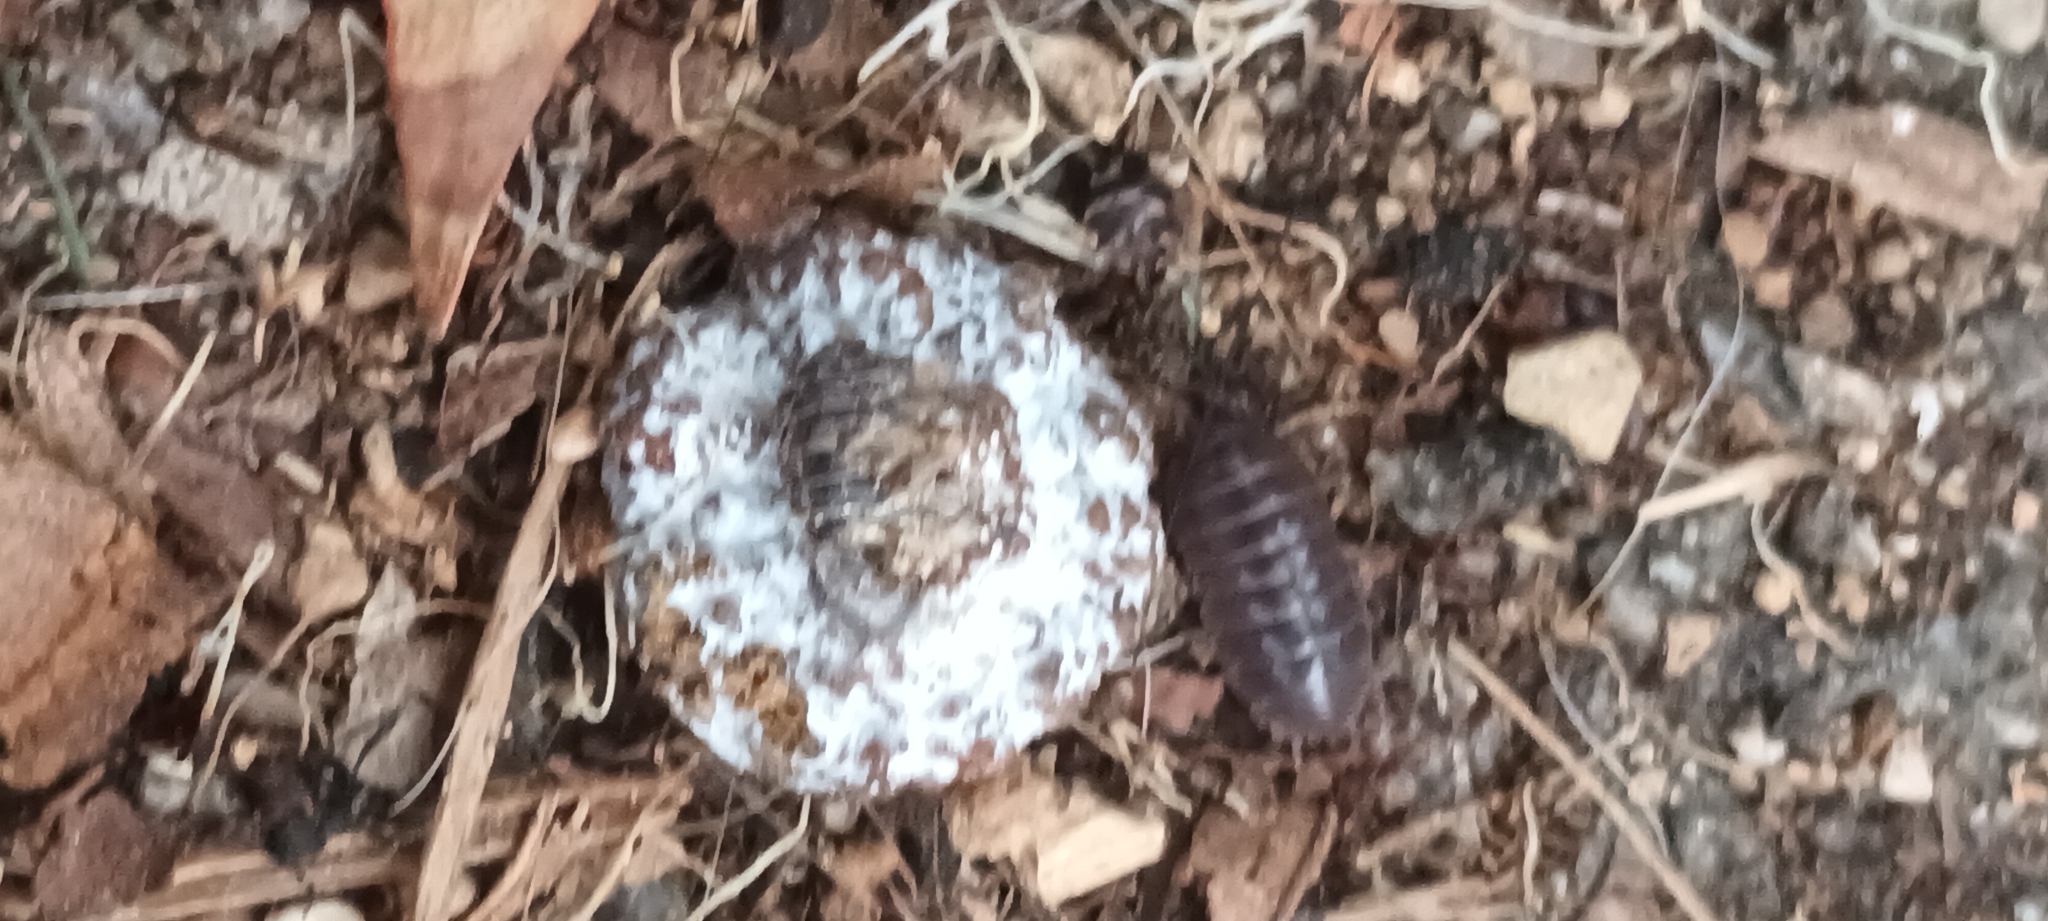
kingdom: Animalia
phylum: Arthropoda
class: Malacostraca
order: Isopoda
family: Armadillidiidae
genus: Armadillidium
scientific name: Armadillidium vulgare
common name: Common pill woodlouse
